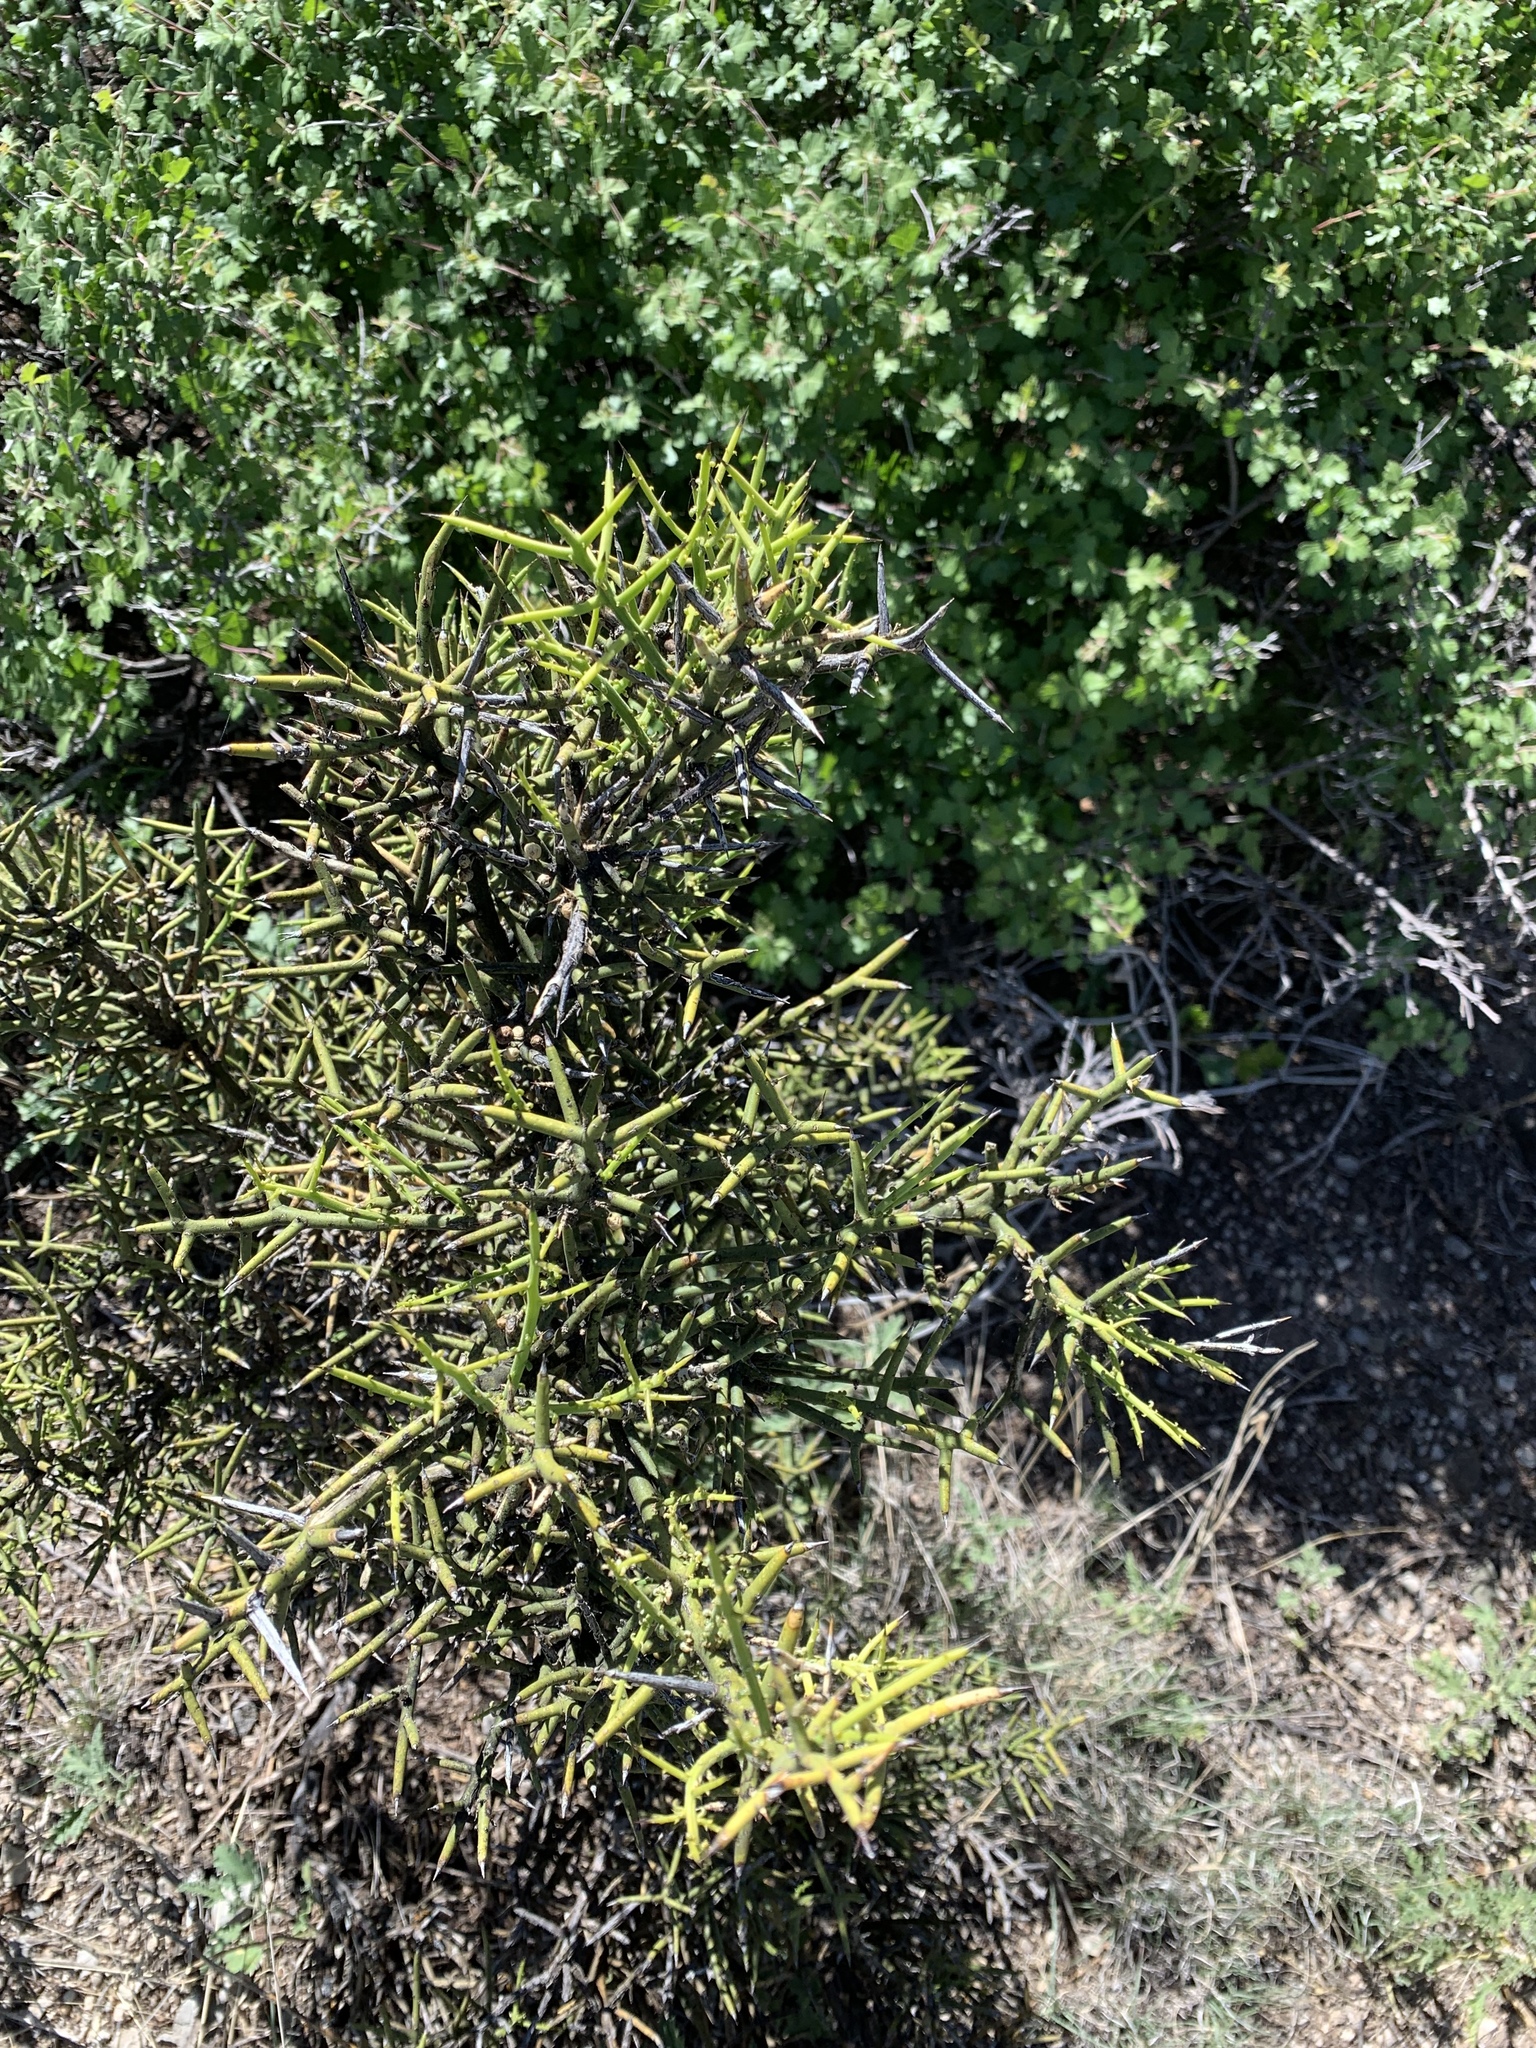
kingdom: Plantae
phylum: Tracheophyta
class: Magnoliopsida
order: Brassicales
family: Koeberliniaceae
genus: Koeberlinia
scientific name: Koeberlinia spinosa
